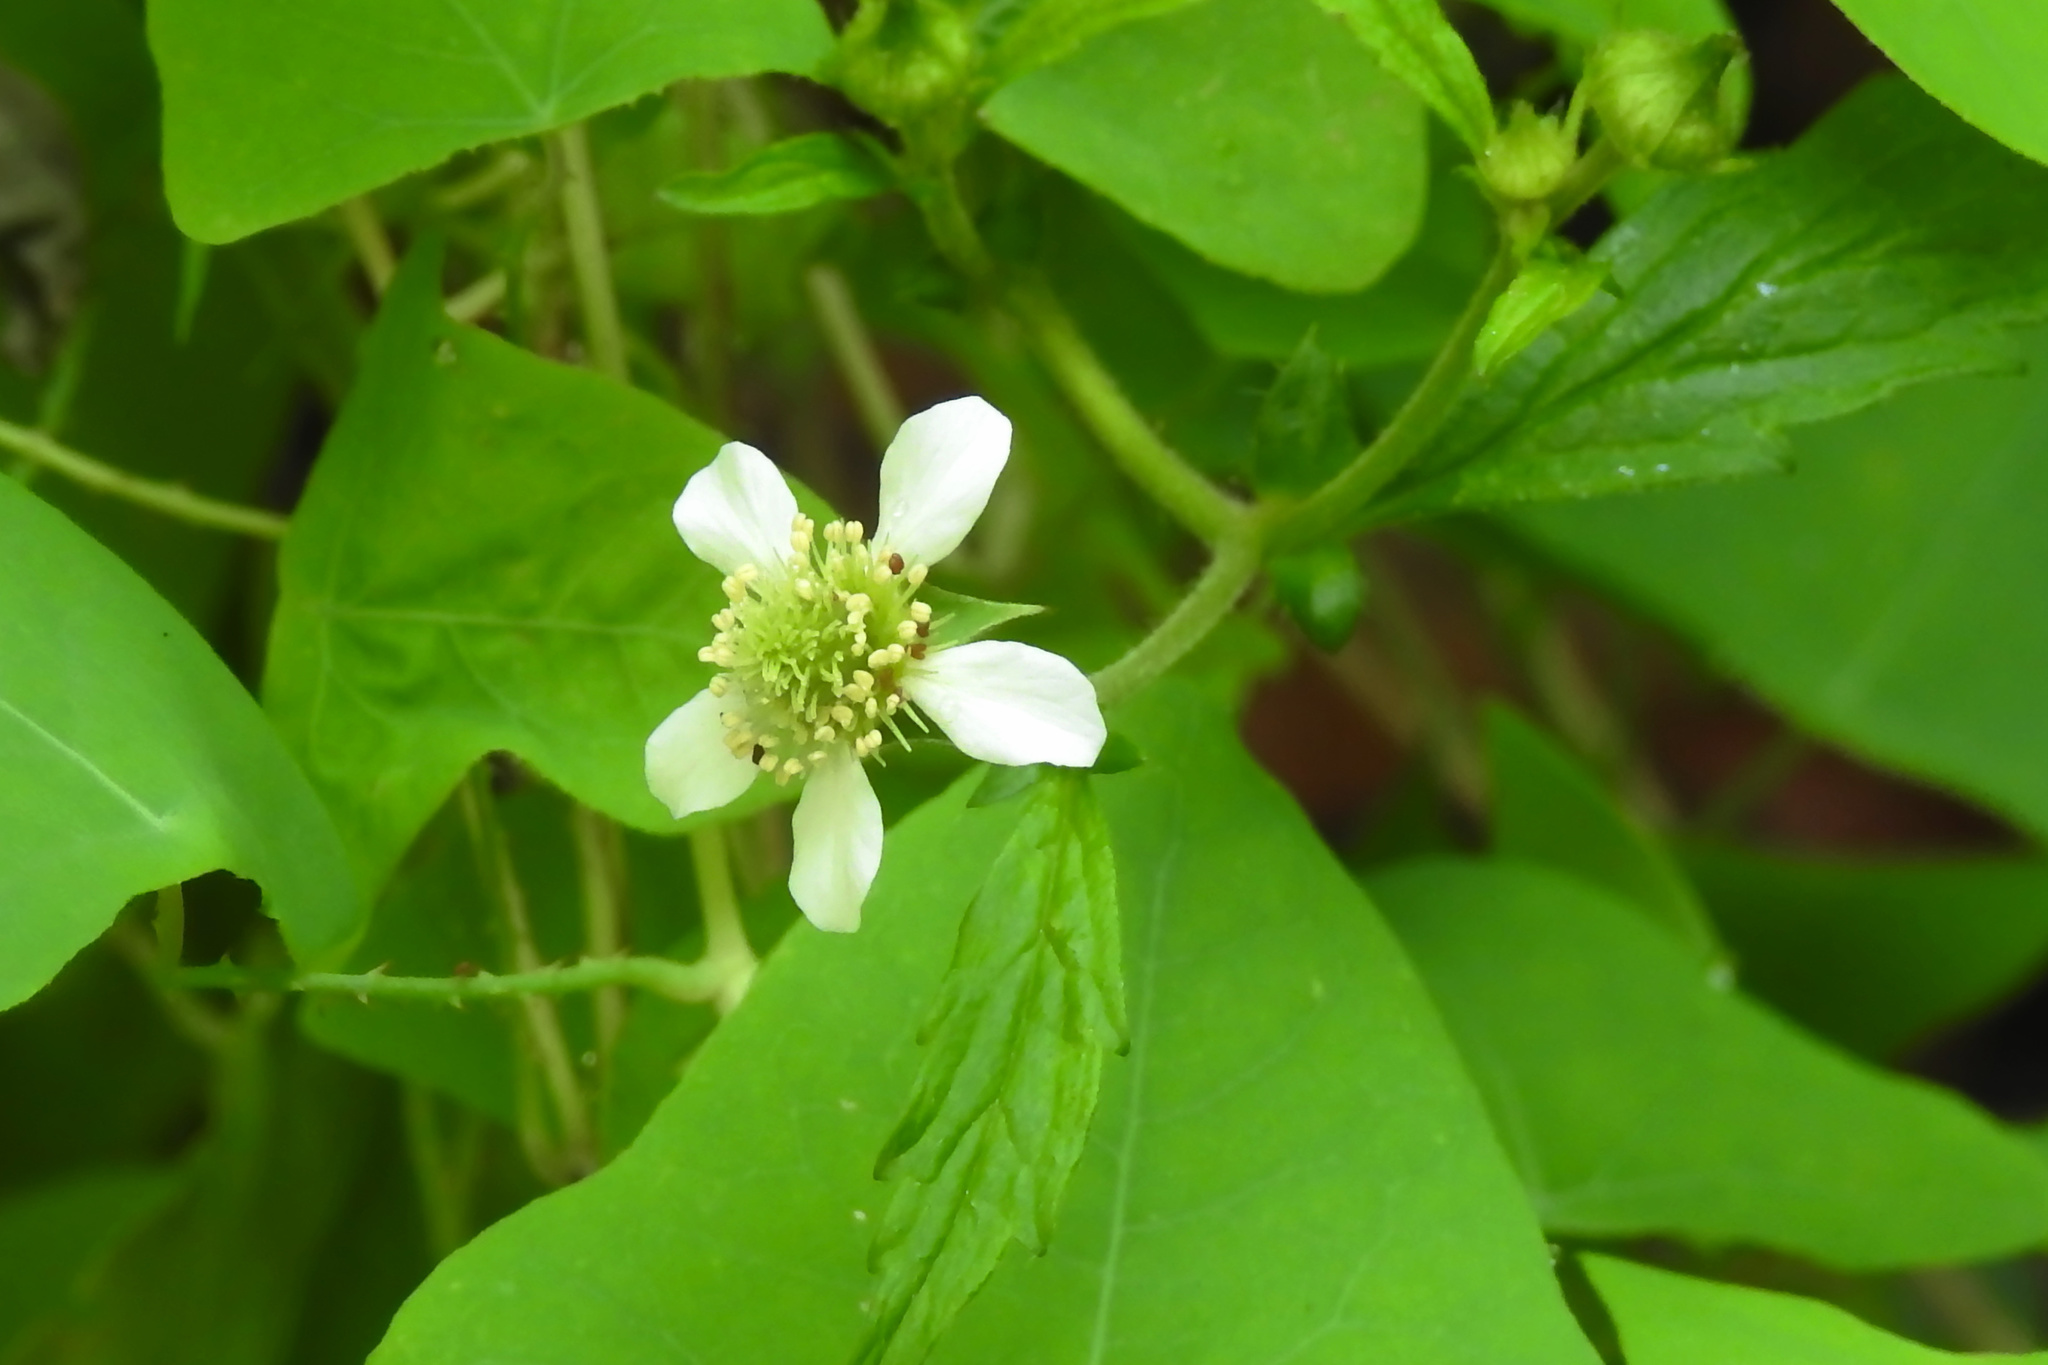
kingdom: Plantae
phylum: Tracheophyta
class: Magnoliopsida
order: Rosales
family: Rosaceae
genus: Geum
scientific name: Geum canadense
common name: White avens
